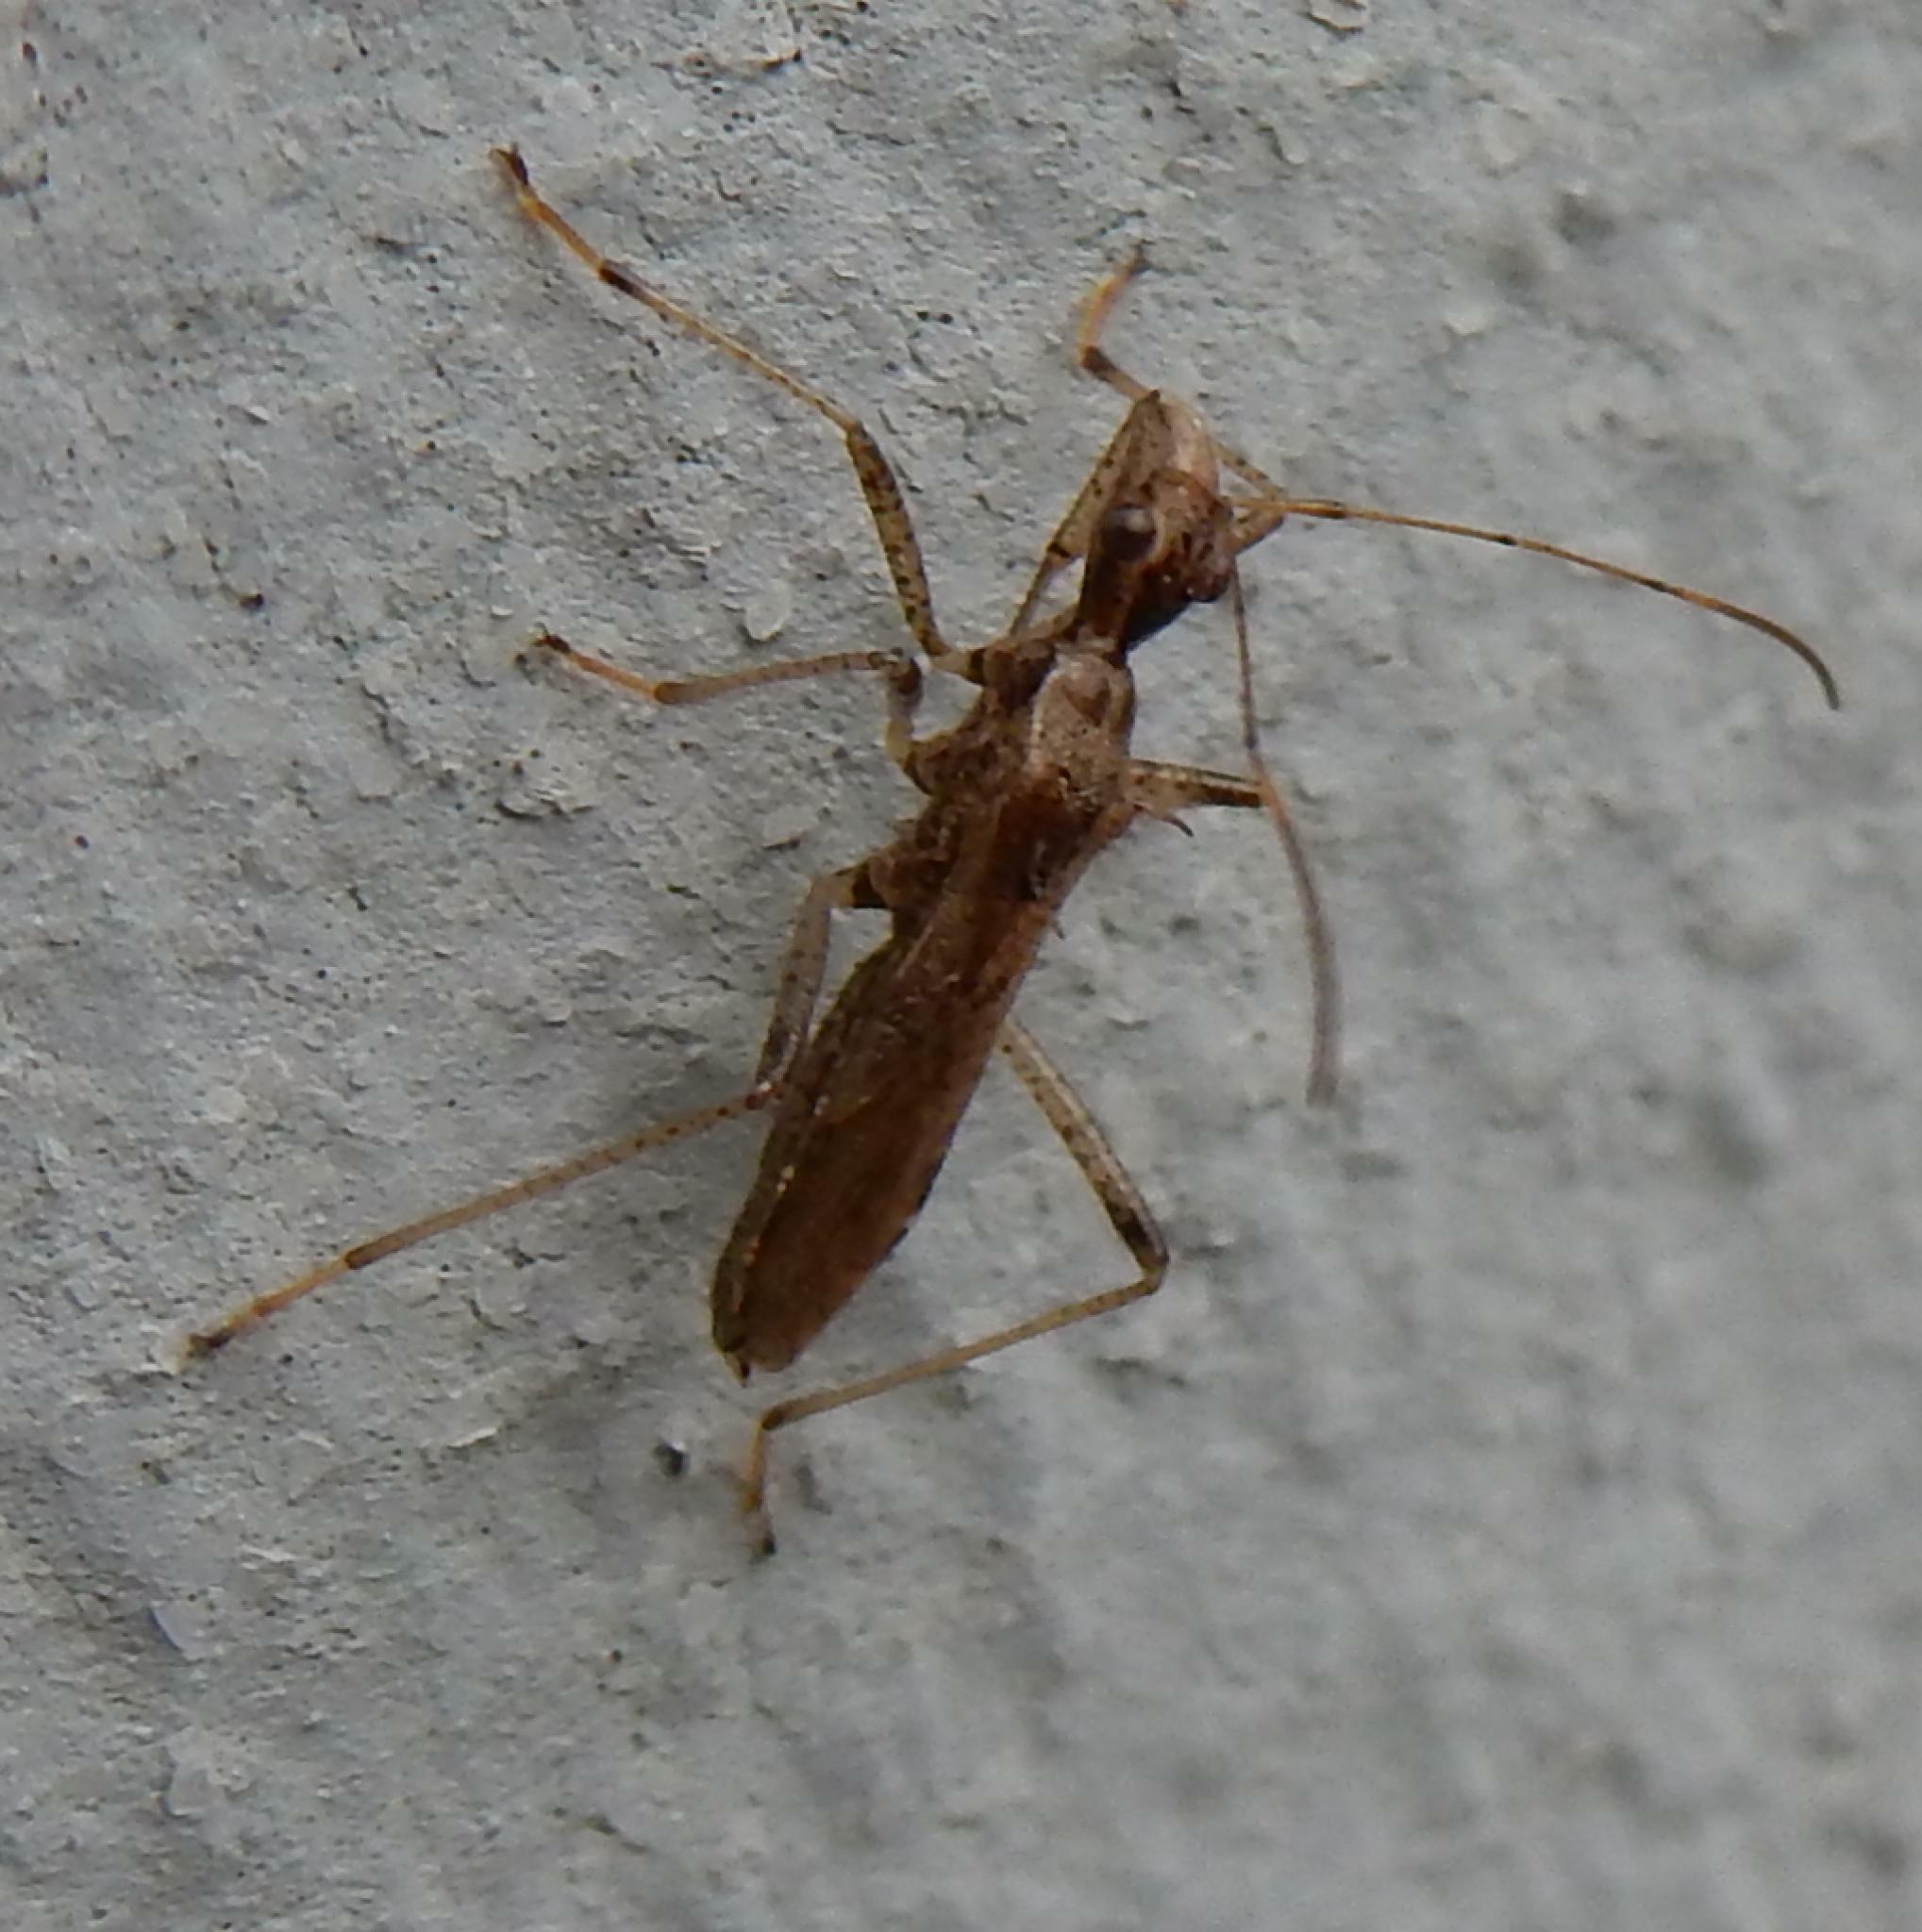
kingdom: Animalia
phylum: Arthropoda
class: Insecta
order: Hemiptera
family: Alydidae
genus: Dulichius
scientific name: Dulichius trispinosus
